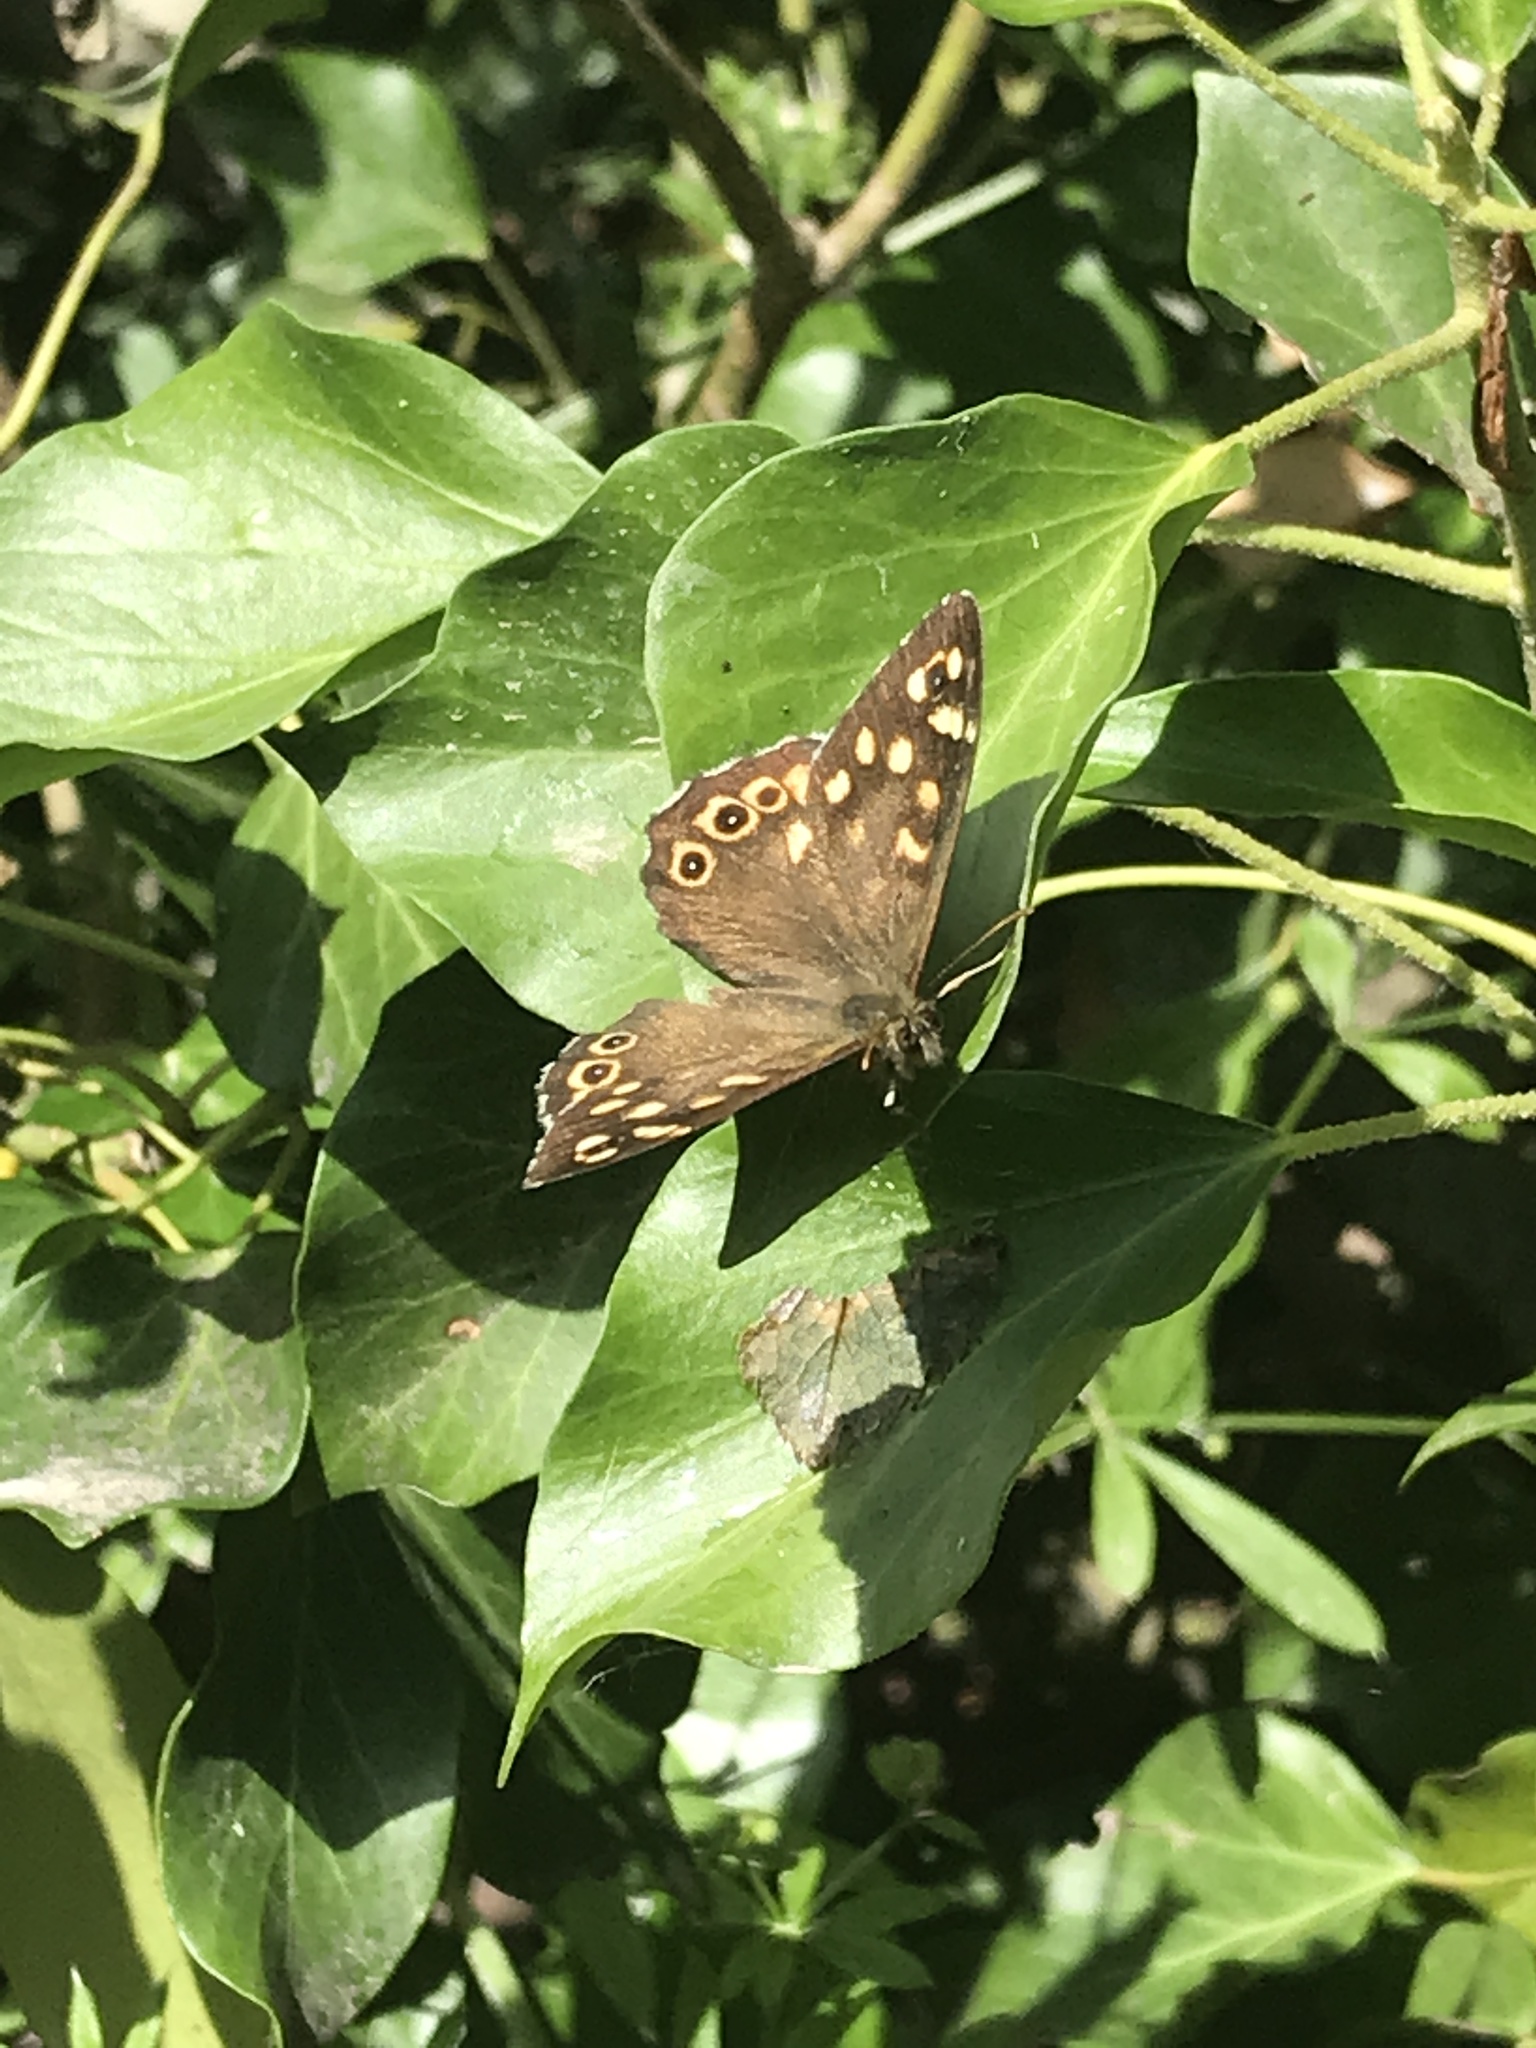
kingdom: Animalia
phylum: Arthropoda
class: Insecta
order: Lepidoptera
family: Nymphalidae
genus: Pararge
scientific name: Pararge aegeria
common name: Speckled wood
